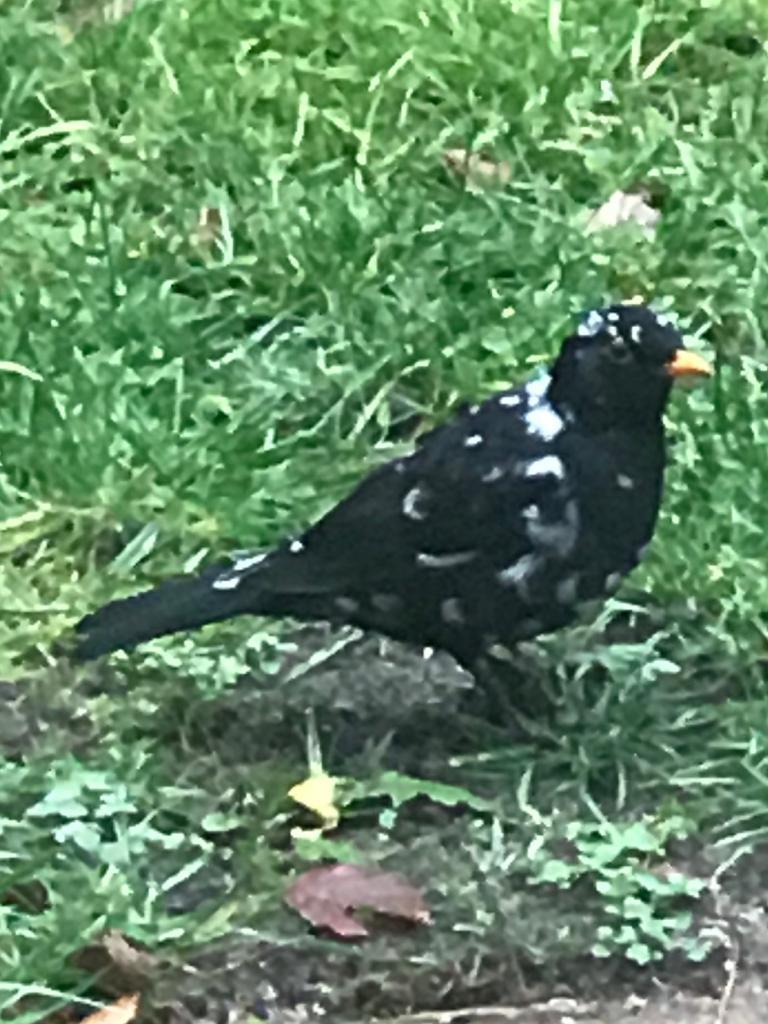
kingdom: Animalia
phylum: Chordata
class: Aves
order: Passeriformes
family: Turdidae
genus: Turdus
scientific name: Turdus merula
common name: Common blackbird
